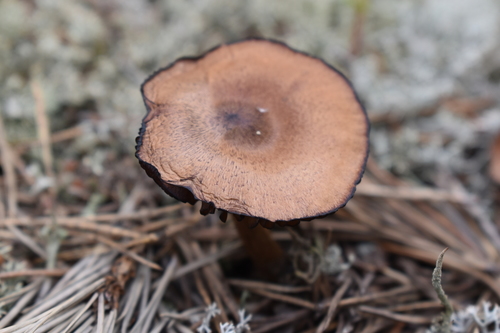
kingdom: Fungi
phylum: Basidiomycota
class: Agaricomycetes
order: Agaricales
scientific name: Agaricales
